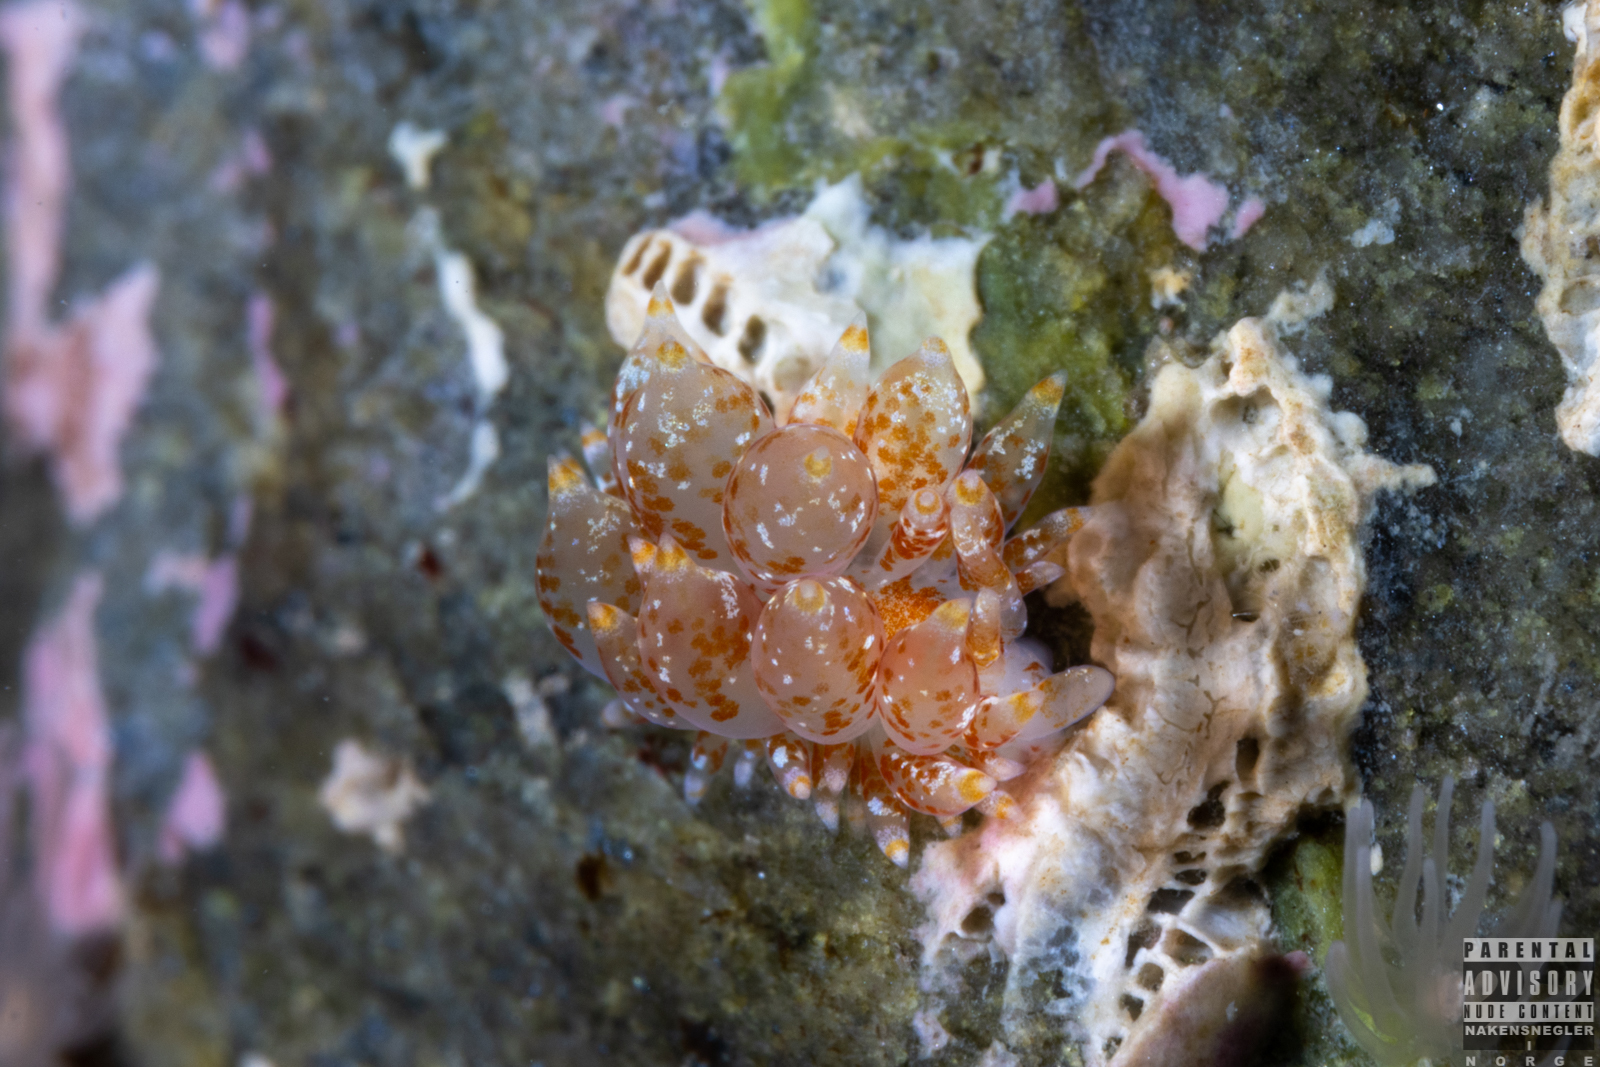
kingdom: Animalia
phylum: Mollusca
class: Gastropoda
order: Nudibranchia
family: Eubranchidae
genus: Amphorina
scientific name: Amphorina pallida
